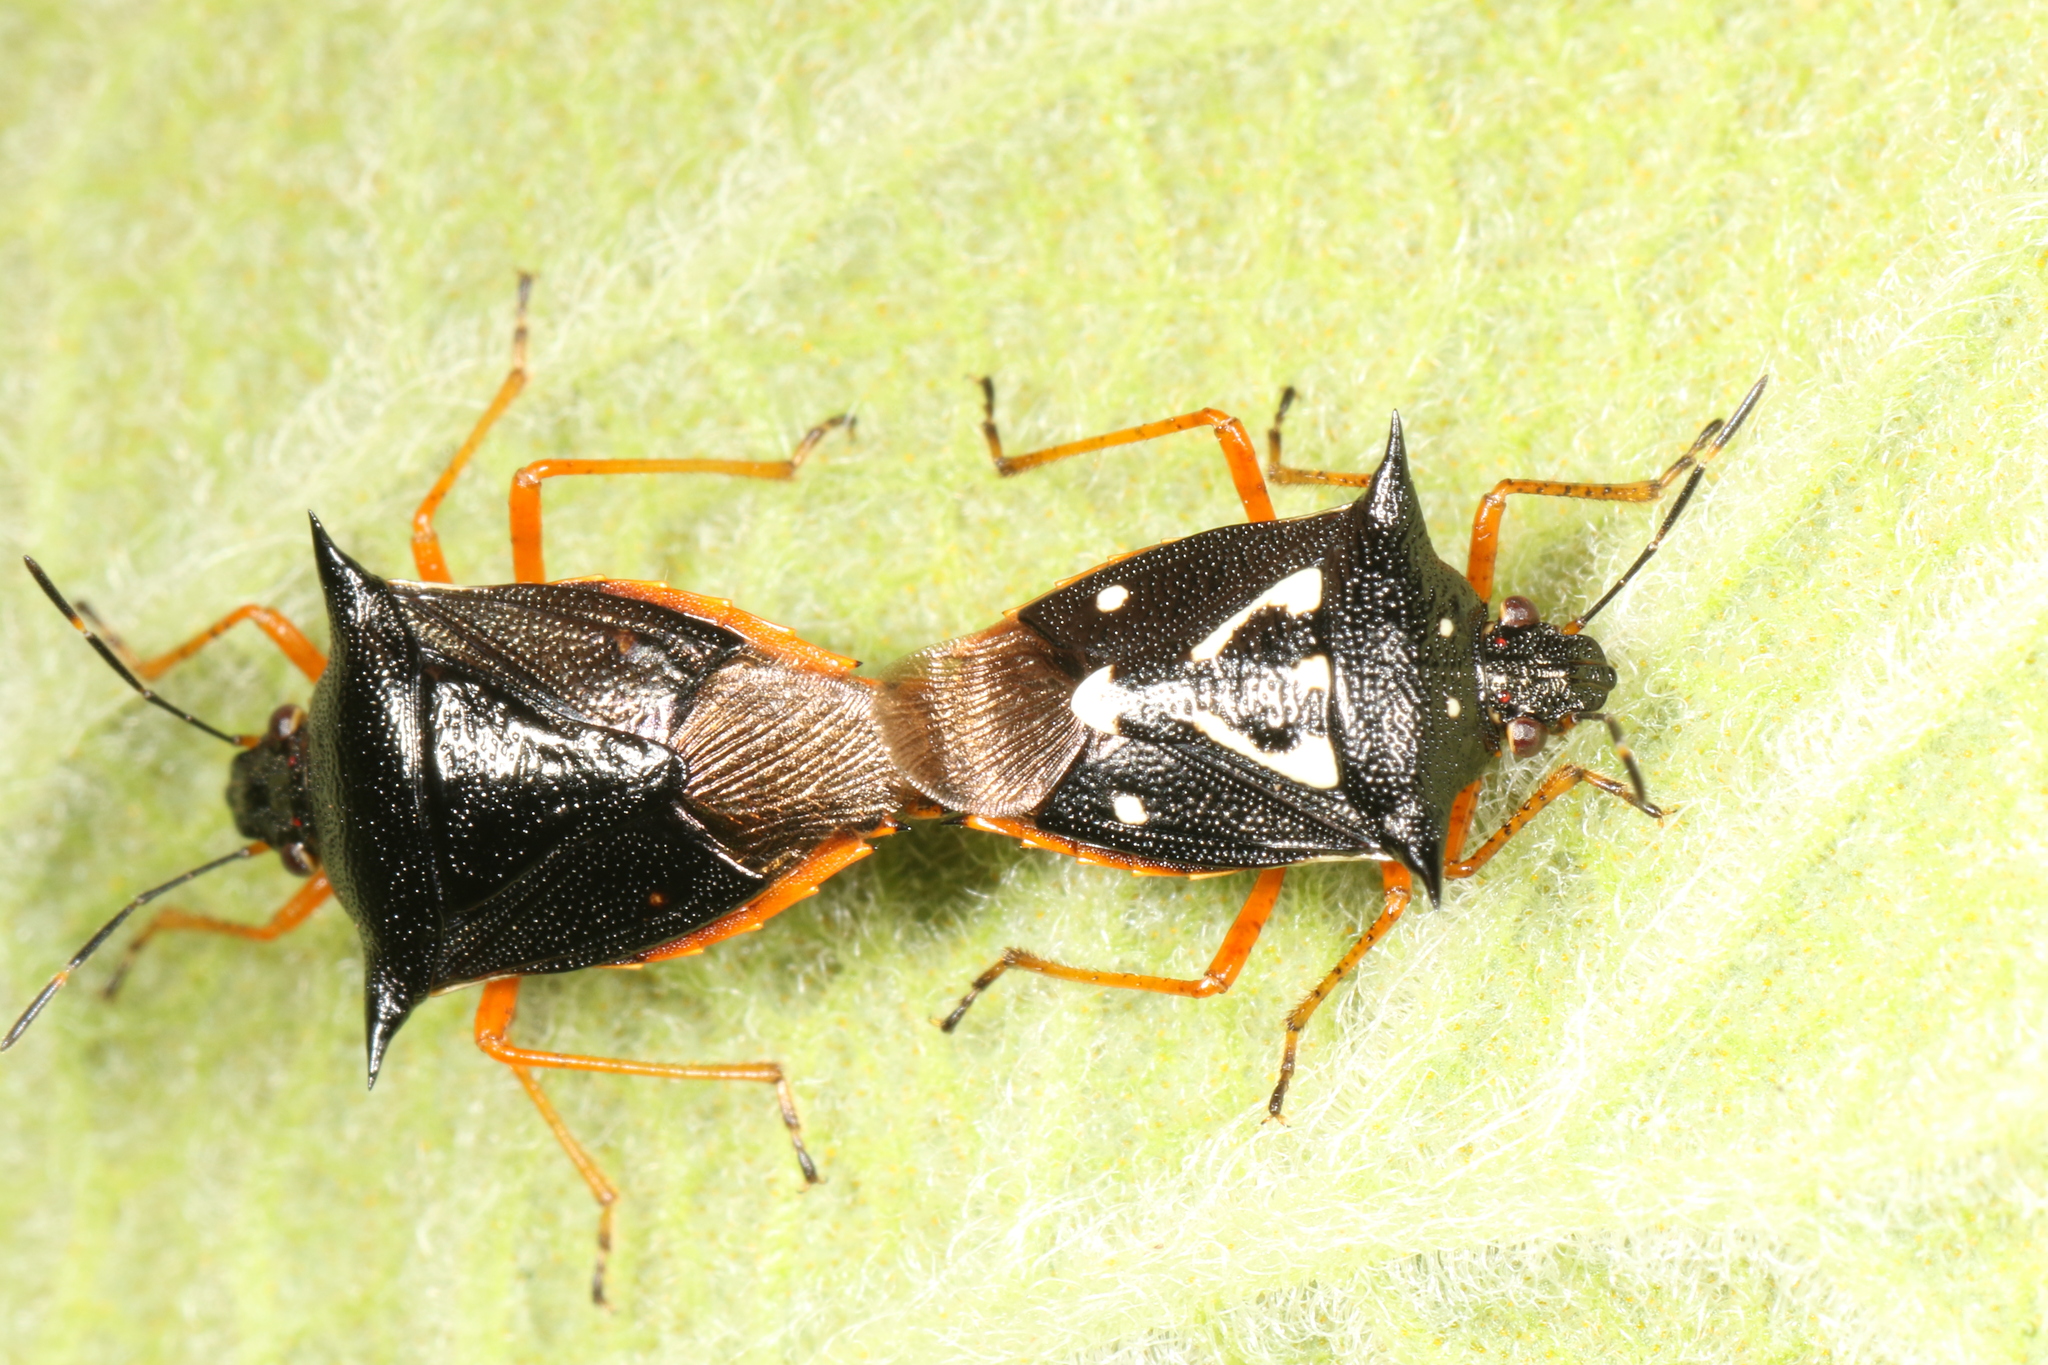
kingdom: Animalia
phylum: Arthropoda
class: Insecta
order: Hemiptera
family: Pentatomidae
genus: Mormidea
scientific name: Mormidea v-luteum
